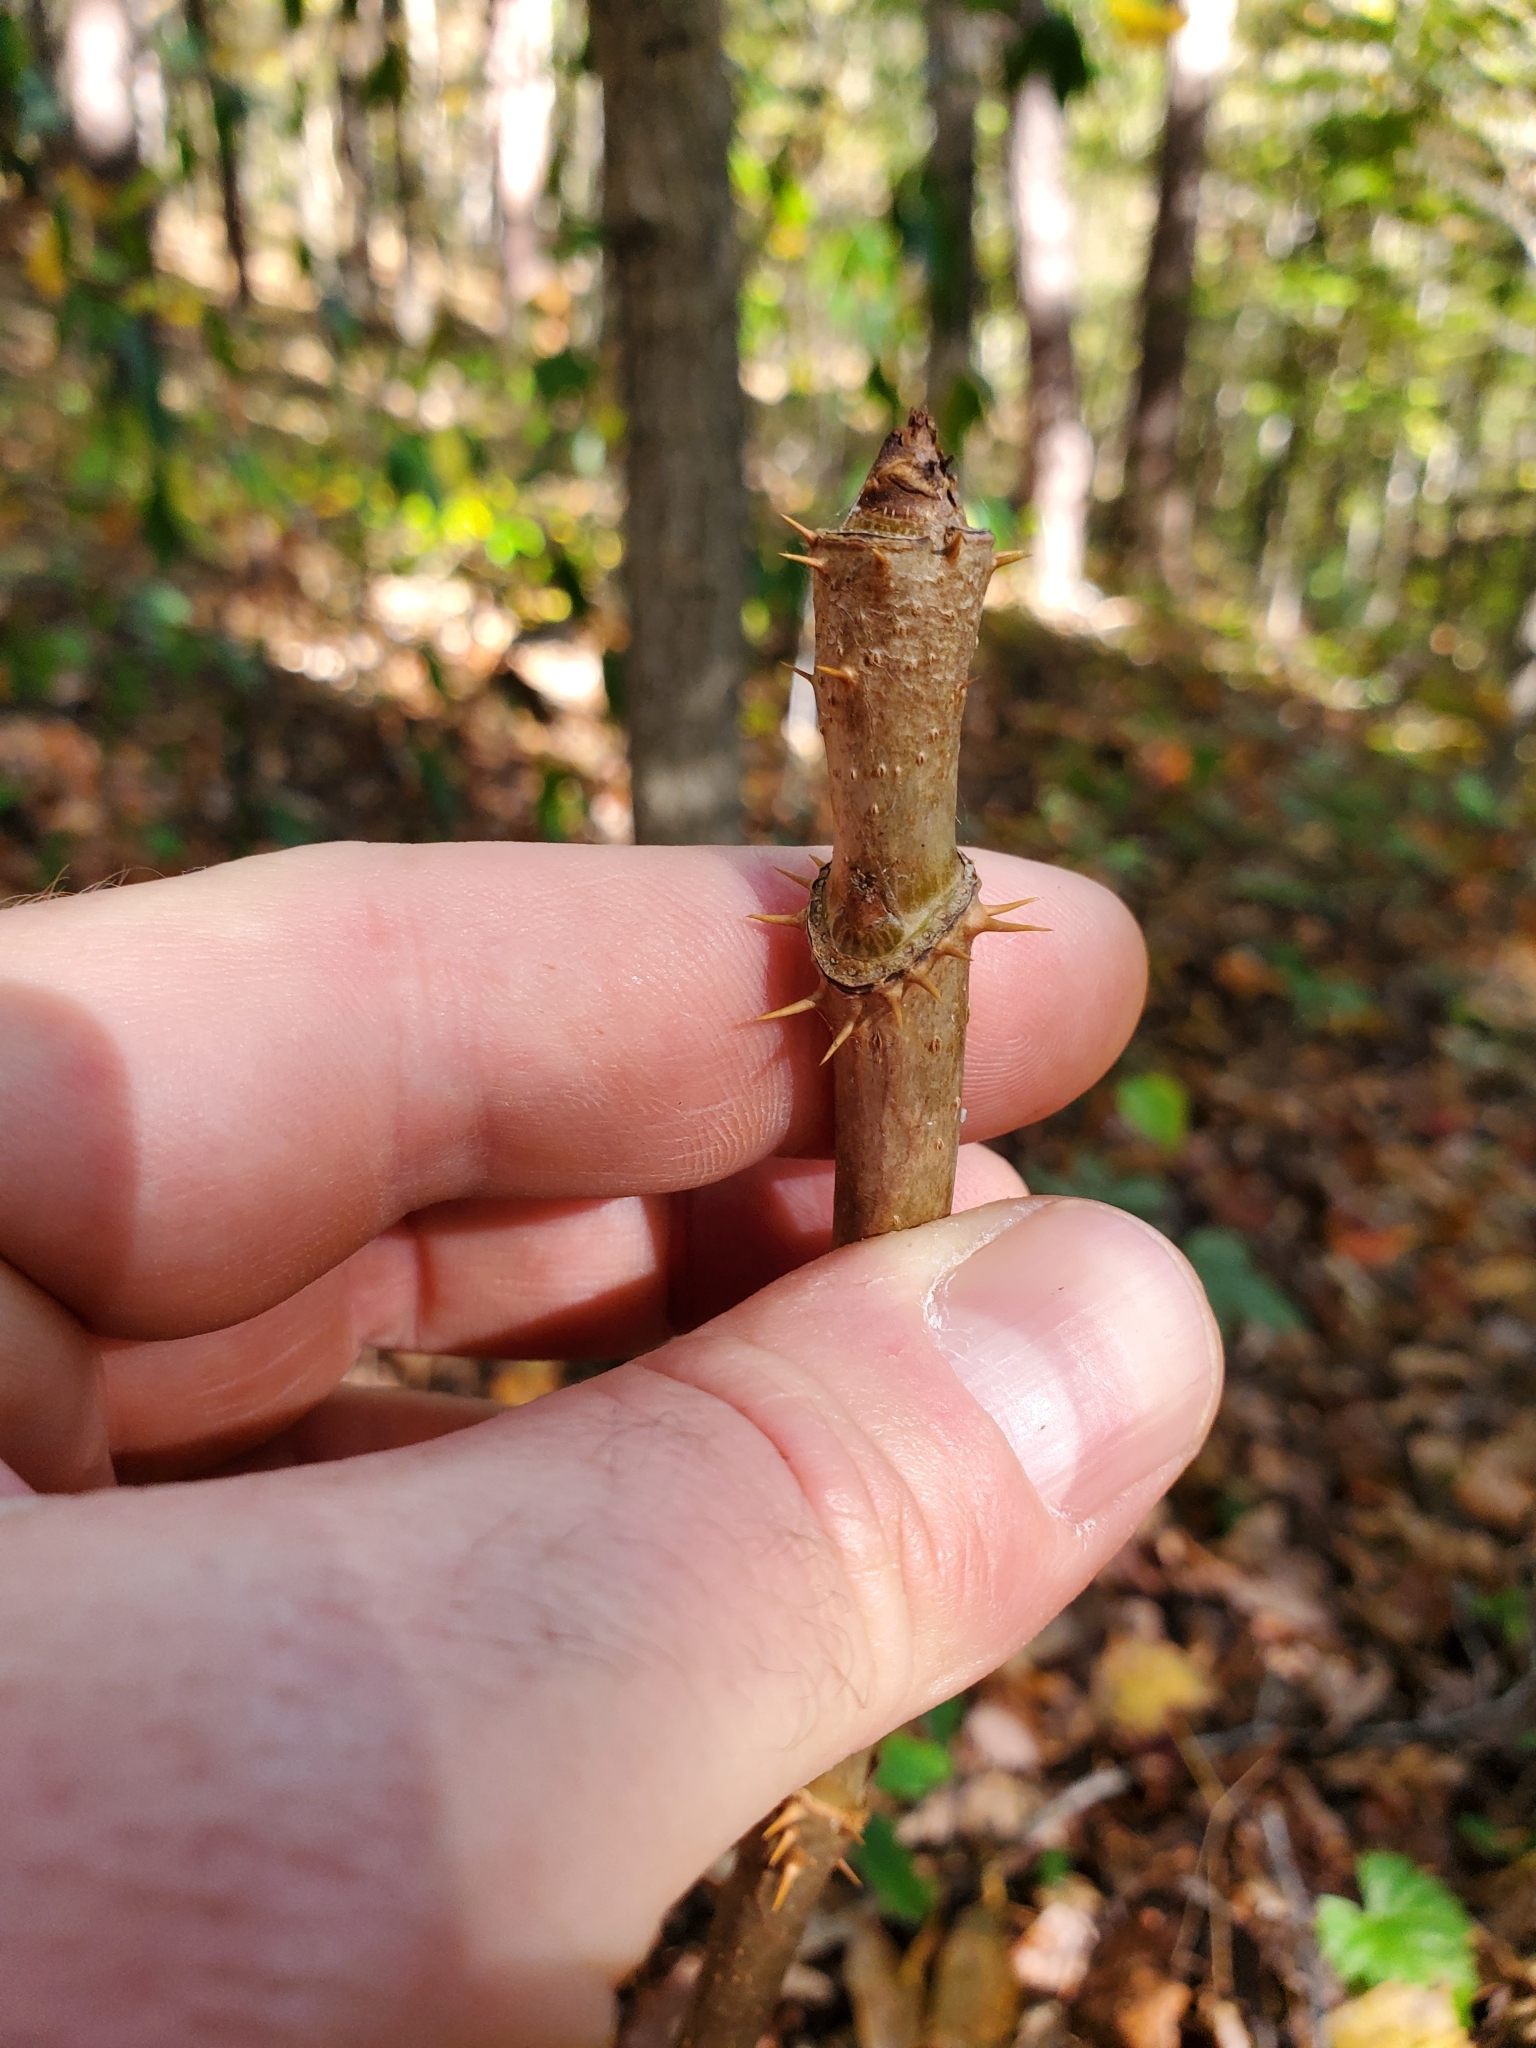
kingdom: Plantae
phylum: Tracheophyta
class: Magnoliopsida
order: Apiales
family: Araliaceae
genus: Aralia
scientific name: Aralia spinosa
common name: Hercules'-club
